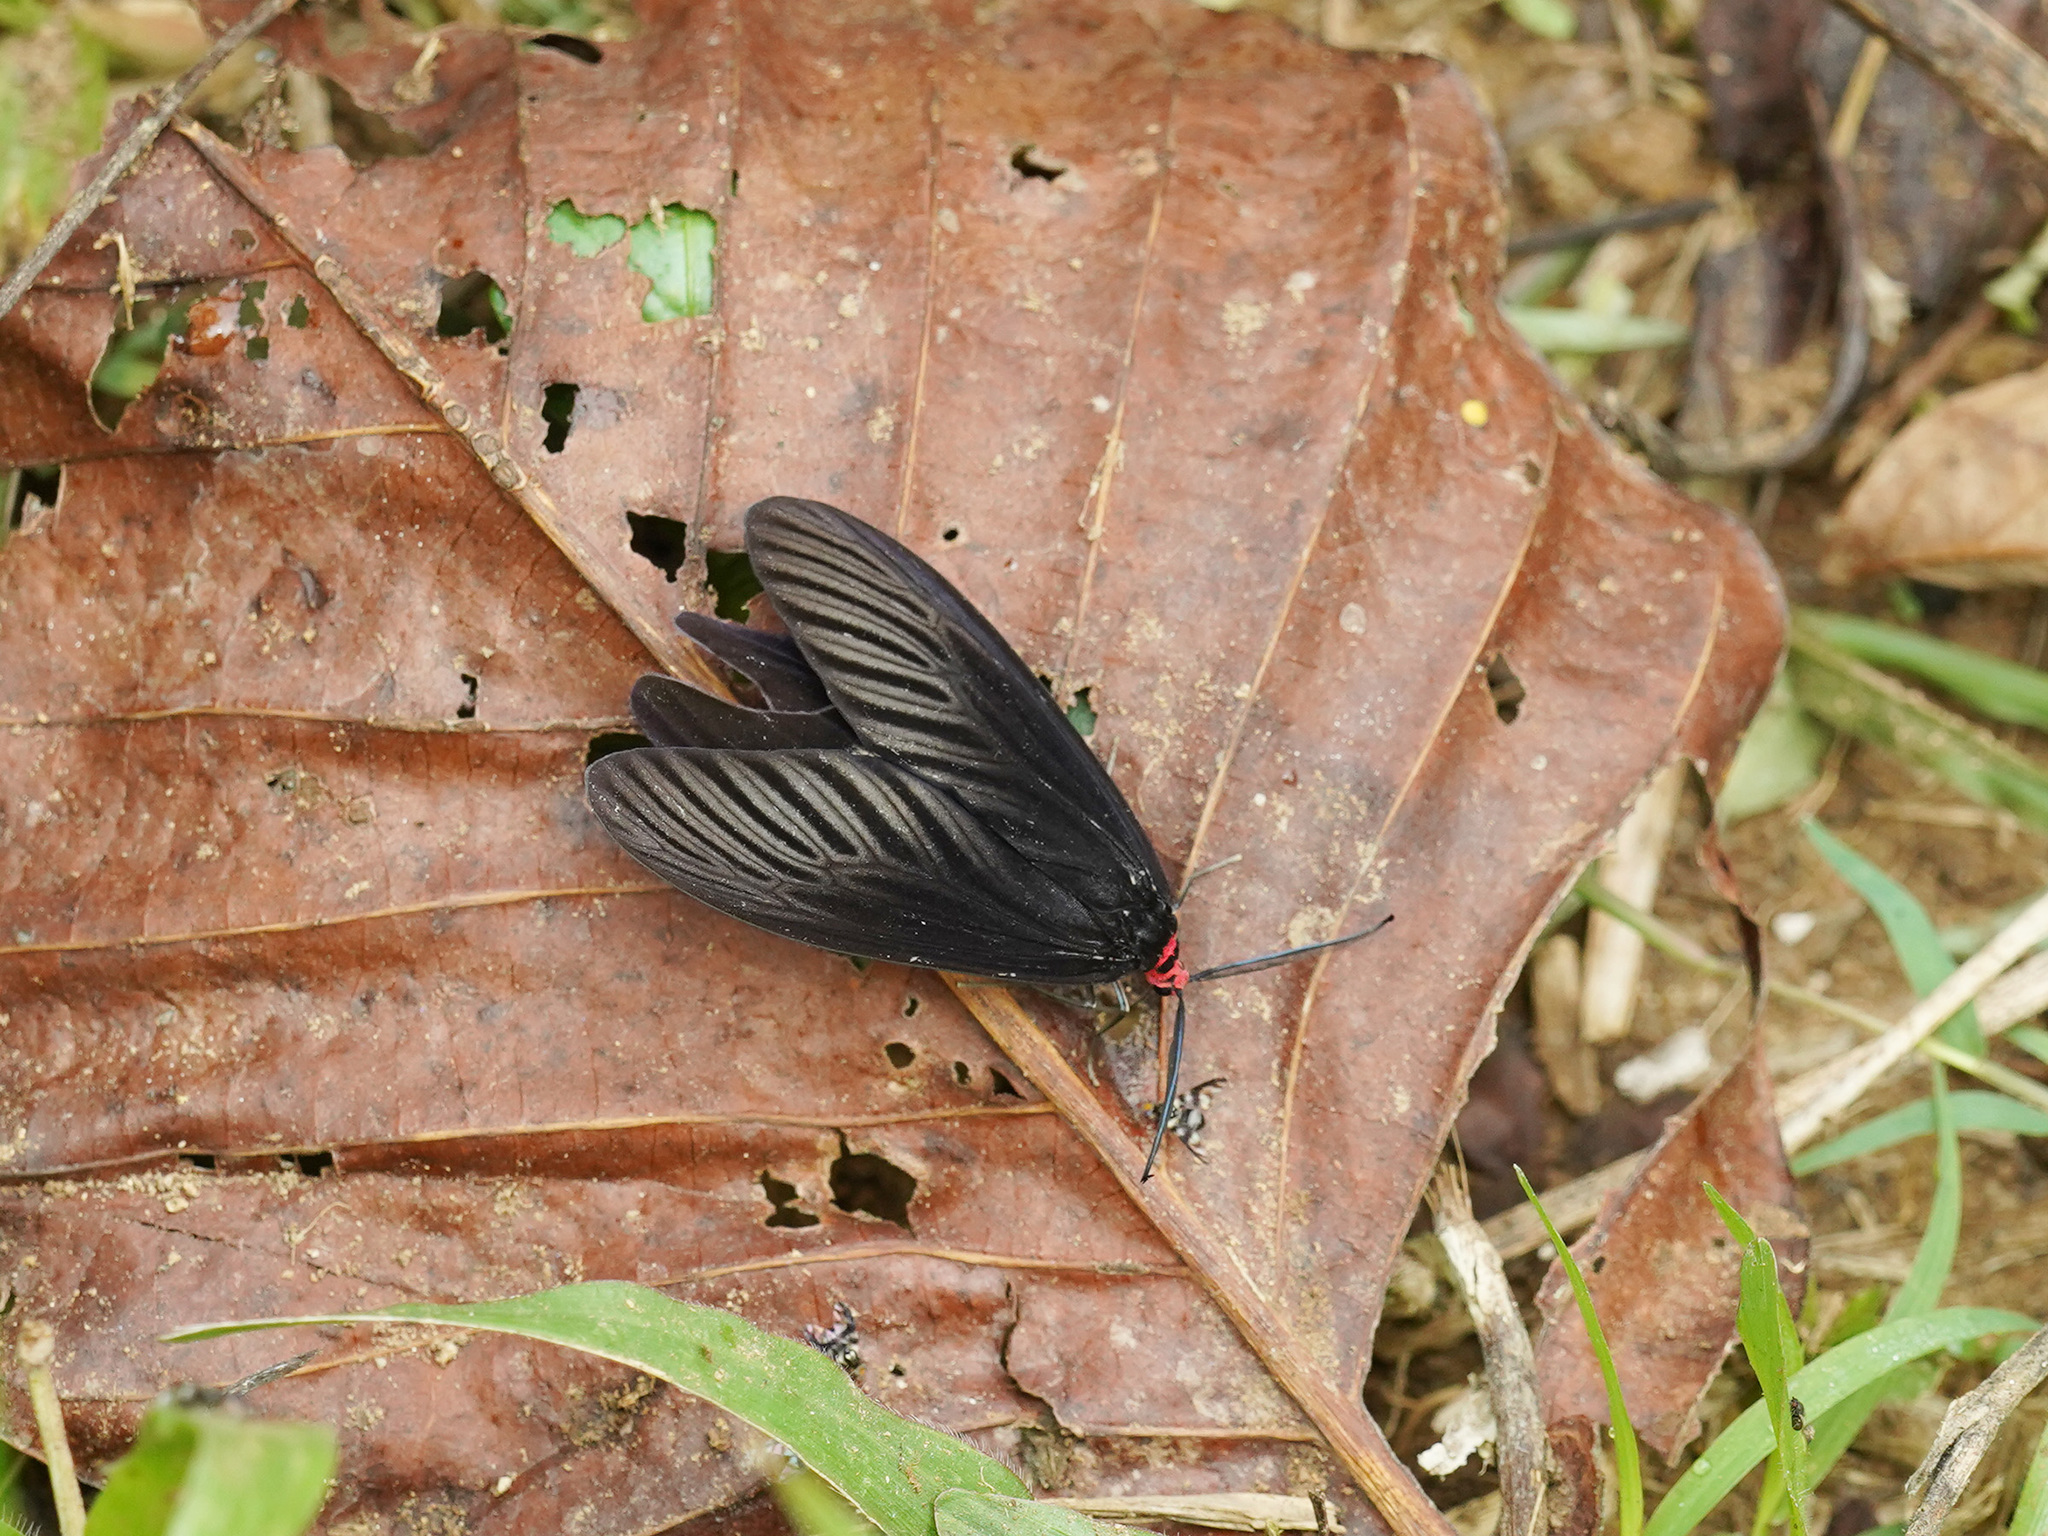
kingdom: Animalia
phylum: Arthropoda
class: Insecta
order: Lepidoptera
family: Zygaenidae
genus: Histia
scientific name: Histia flabellicornis
